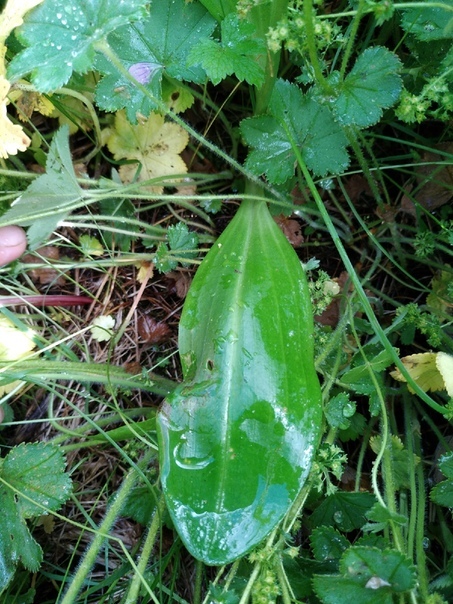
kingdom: Plantae
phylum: Tracheophyta
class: Liliopsida
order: Asparagales
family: Orchidaceae
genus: Platanthera
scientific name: Platanthera bifolia
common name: Lesser butterfly-orchid
